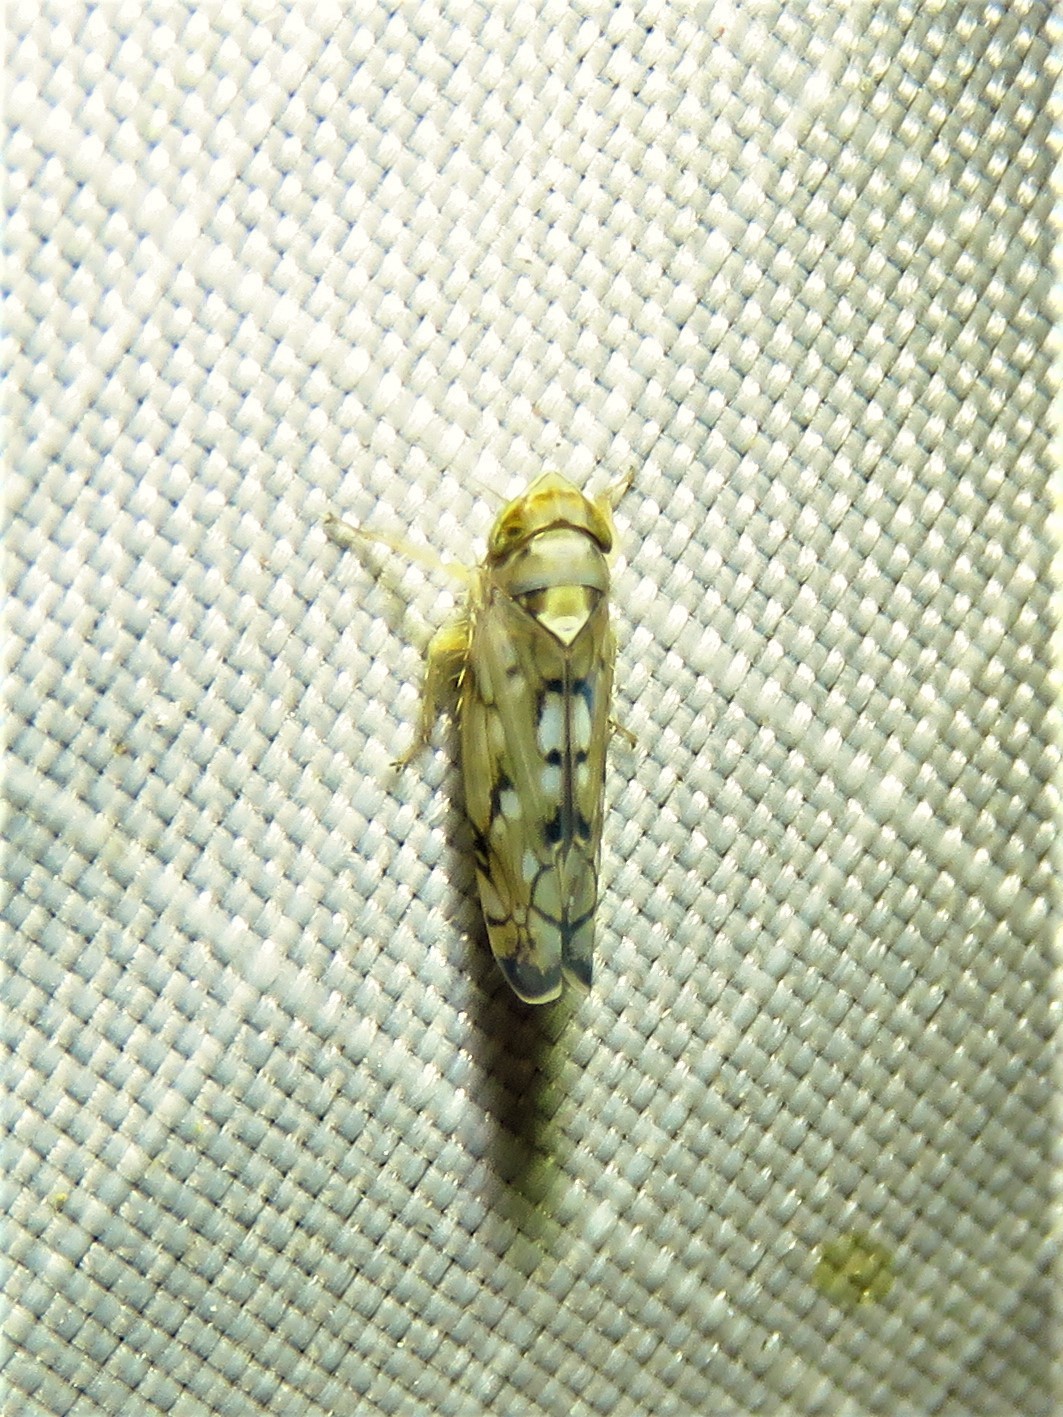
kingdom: Animalia
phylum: Arthropoda
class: Insecta
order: Hemiptera
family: Cicadellidae
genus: Scaphoideus
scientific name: Scaphoideus opalinus
